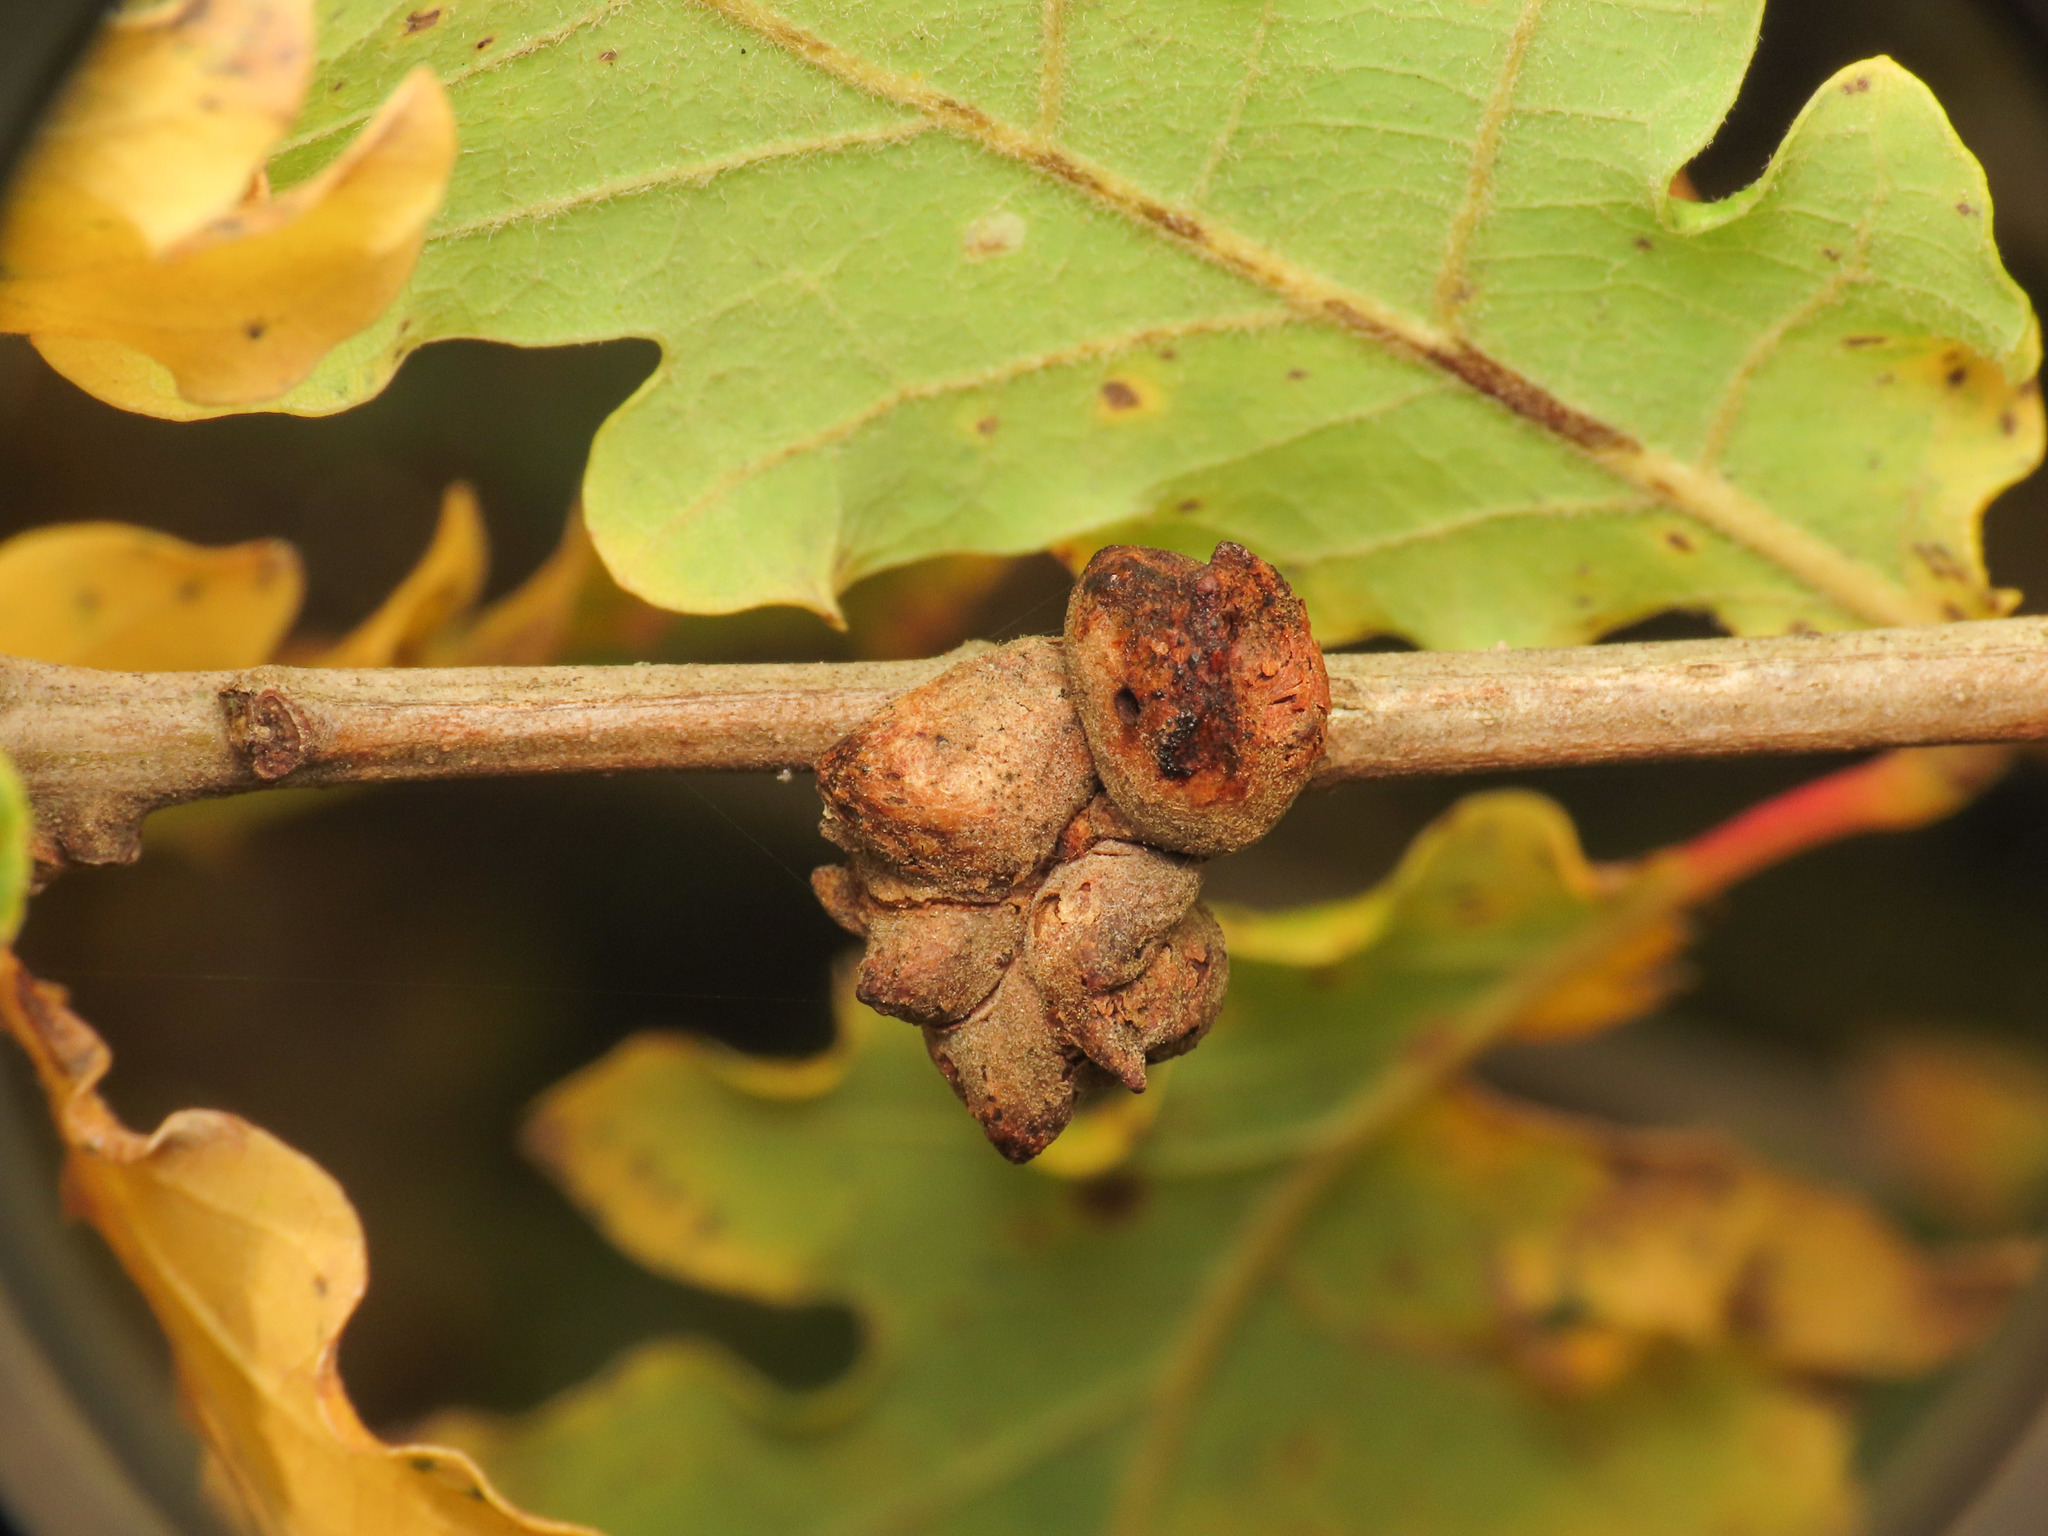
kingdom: Animalia
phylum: Arthropoda
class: Insecta
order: Hymenoptera
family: Cynipidae
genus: Andricus
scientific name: Andricus coriarius
